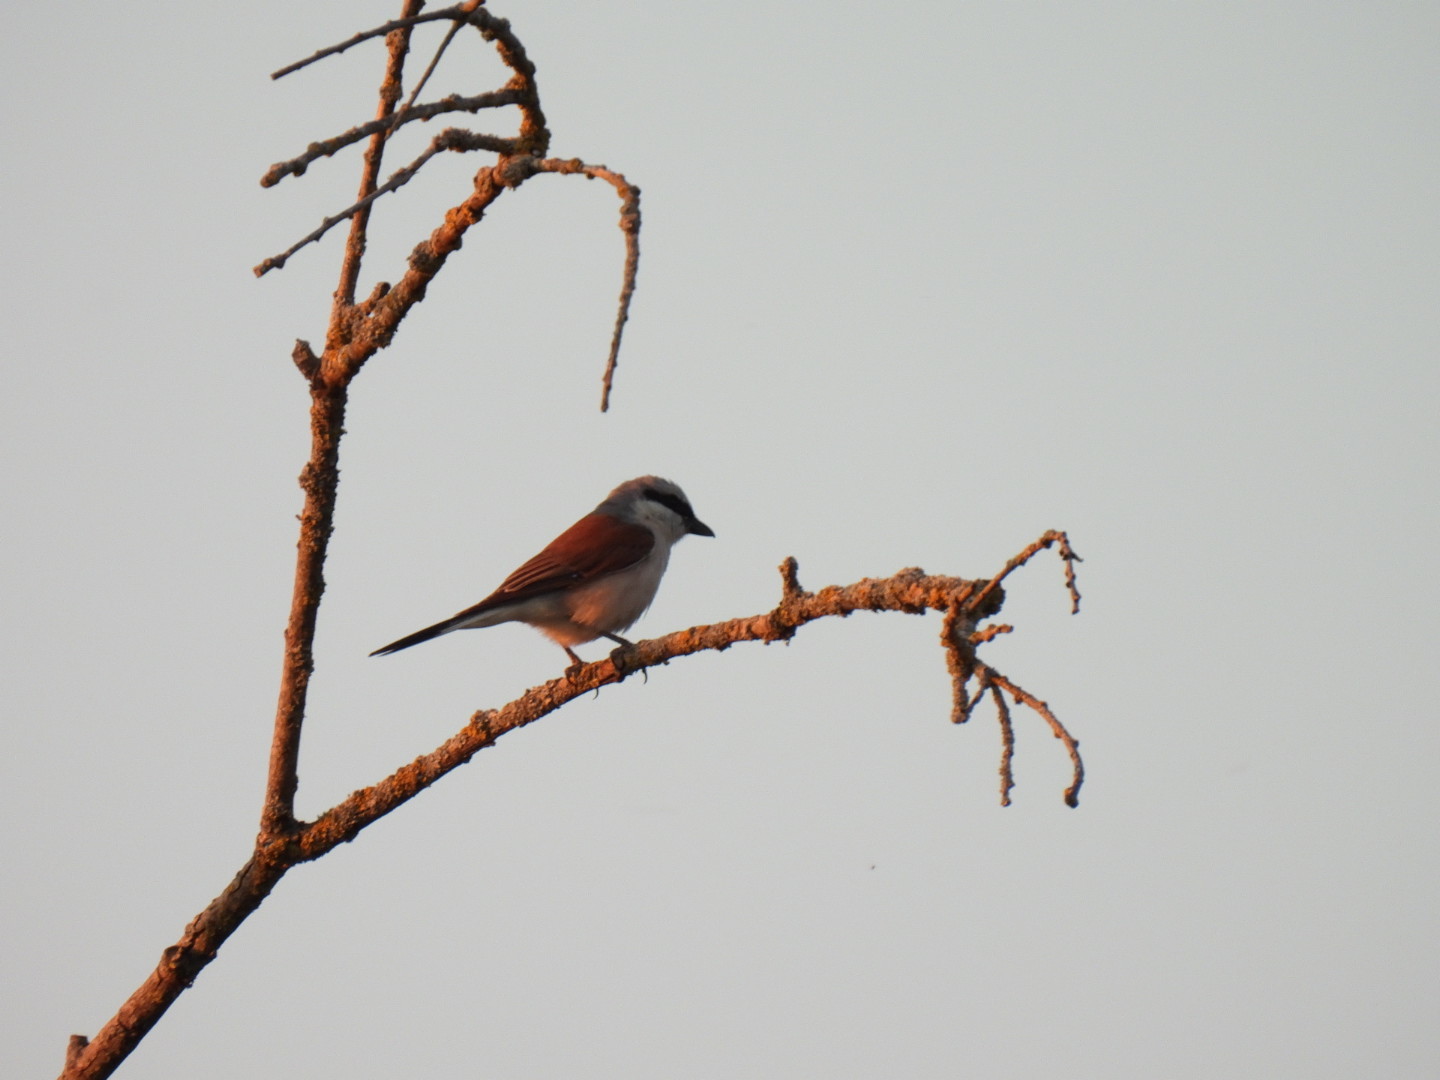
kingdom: Animalia
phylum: Chordata
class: Aves
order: Passeriformes
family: Laniidae
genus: Lanius
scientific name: Lanius collurio
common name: Red-backed shrike
